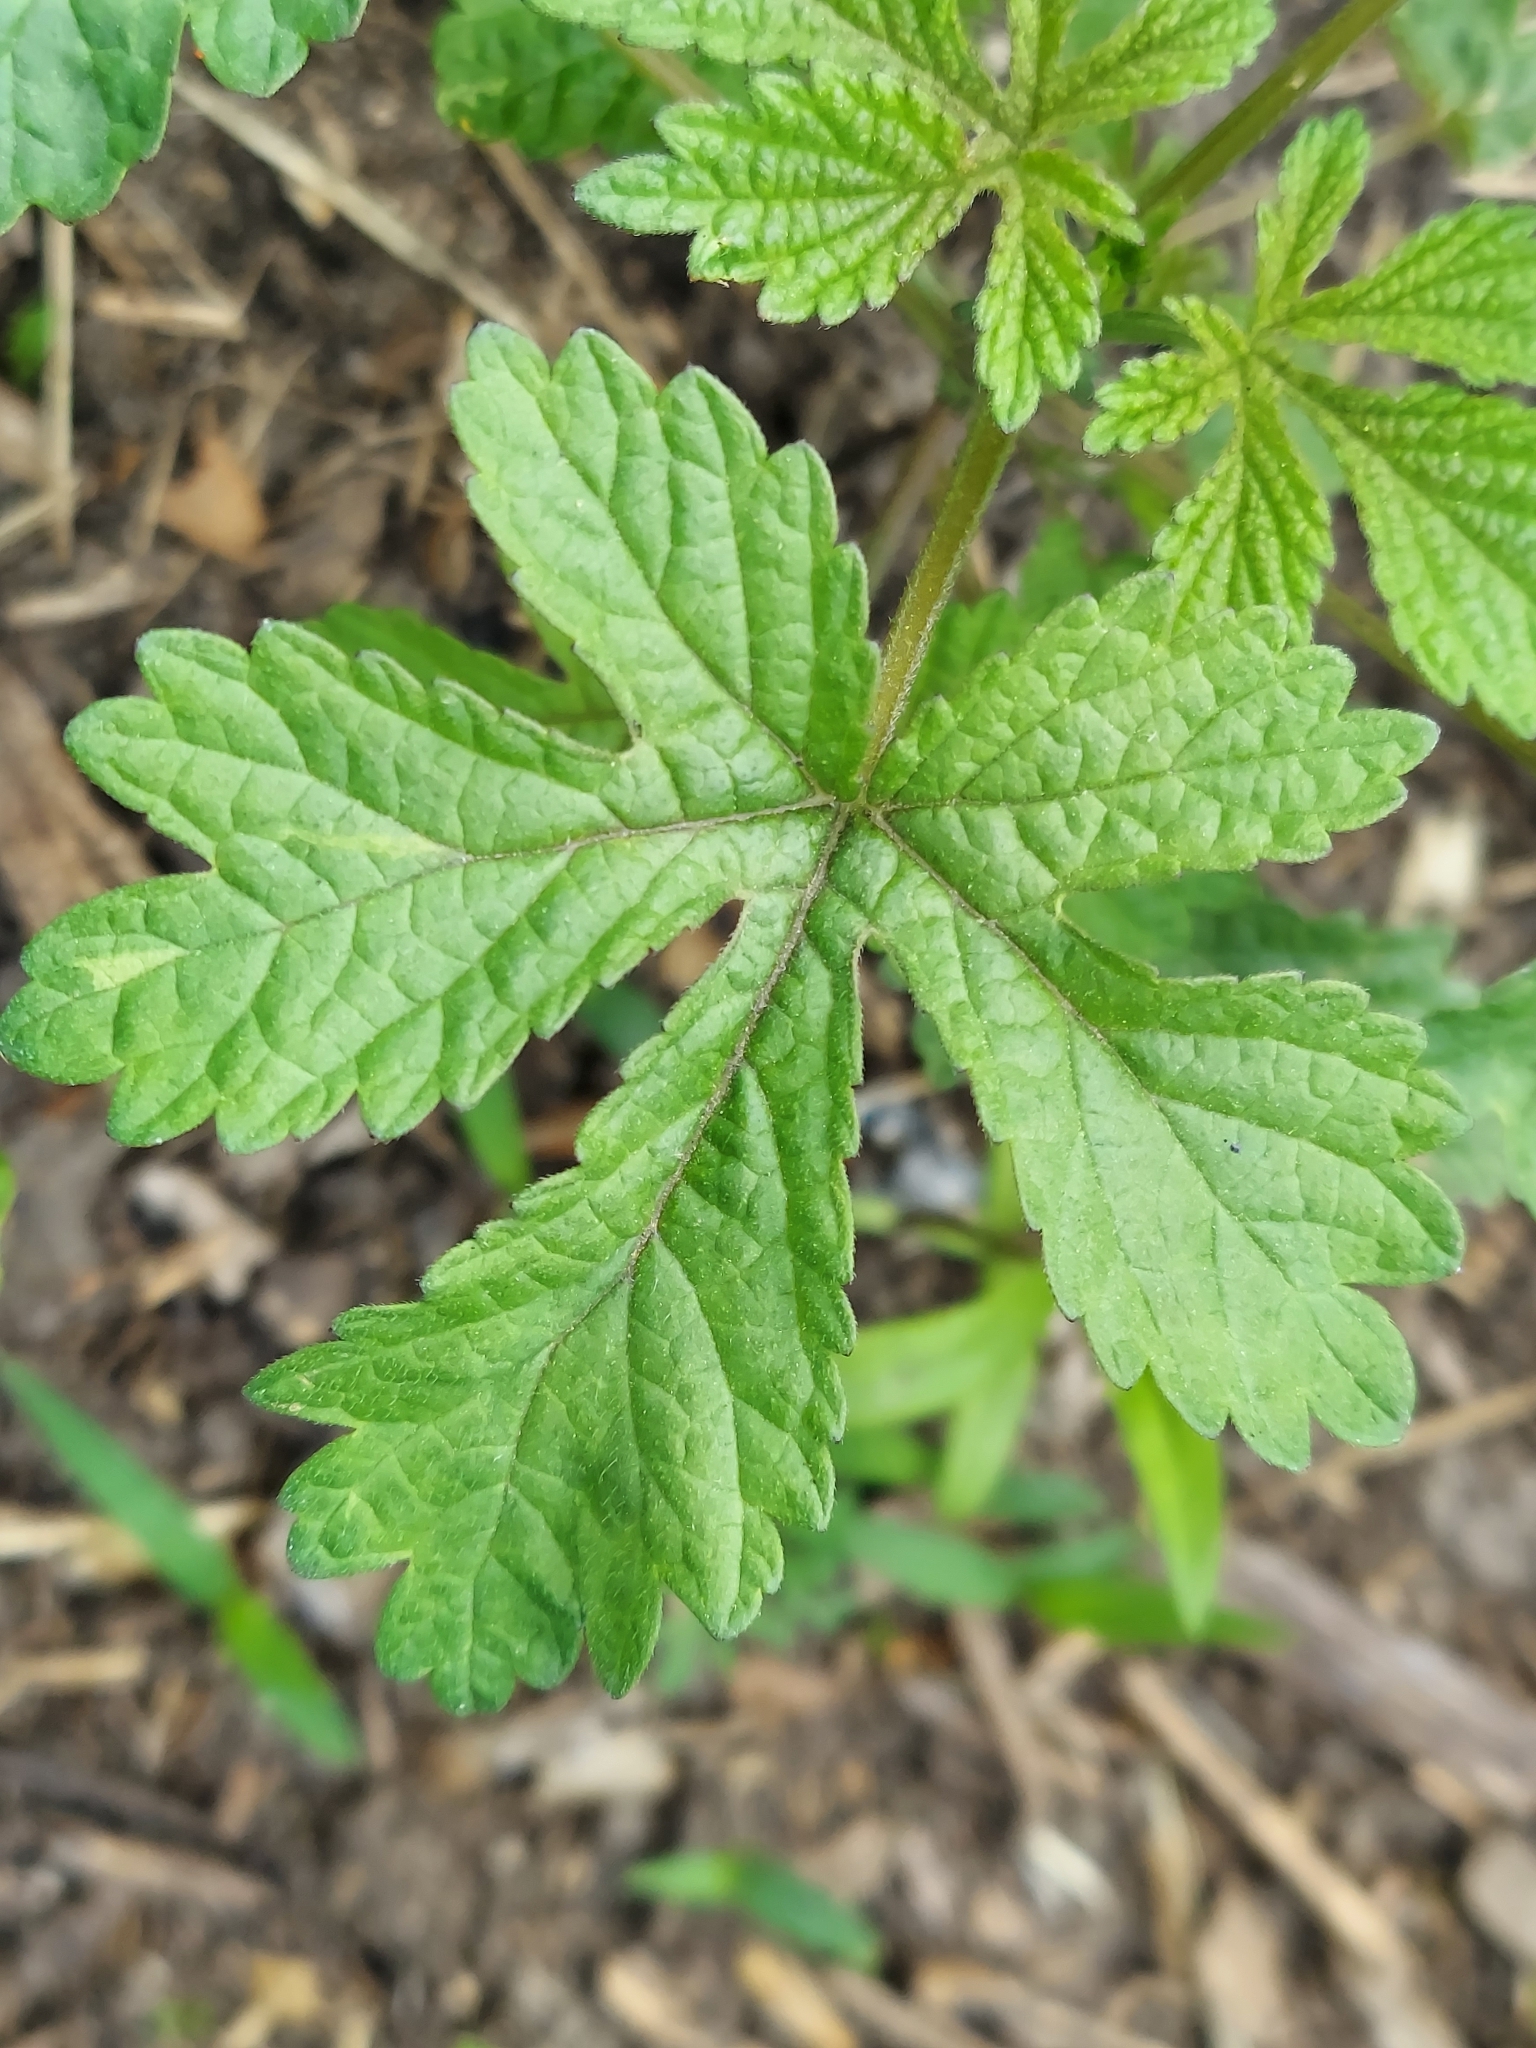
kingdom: Plantae
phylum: Tracheophyta
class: Magnoliopsida
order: Rosales
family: Cannabaceae
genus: Humulus
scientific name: Humulus scandens
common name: Japanese hop
